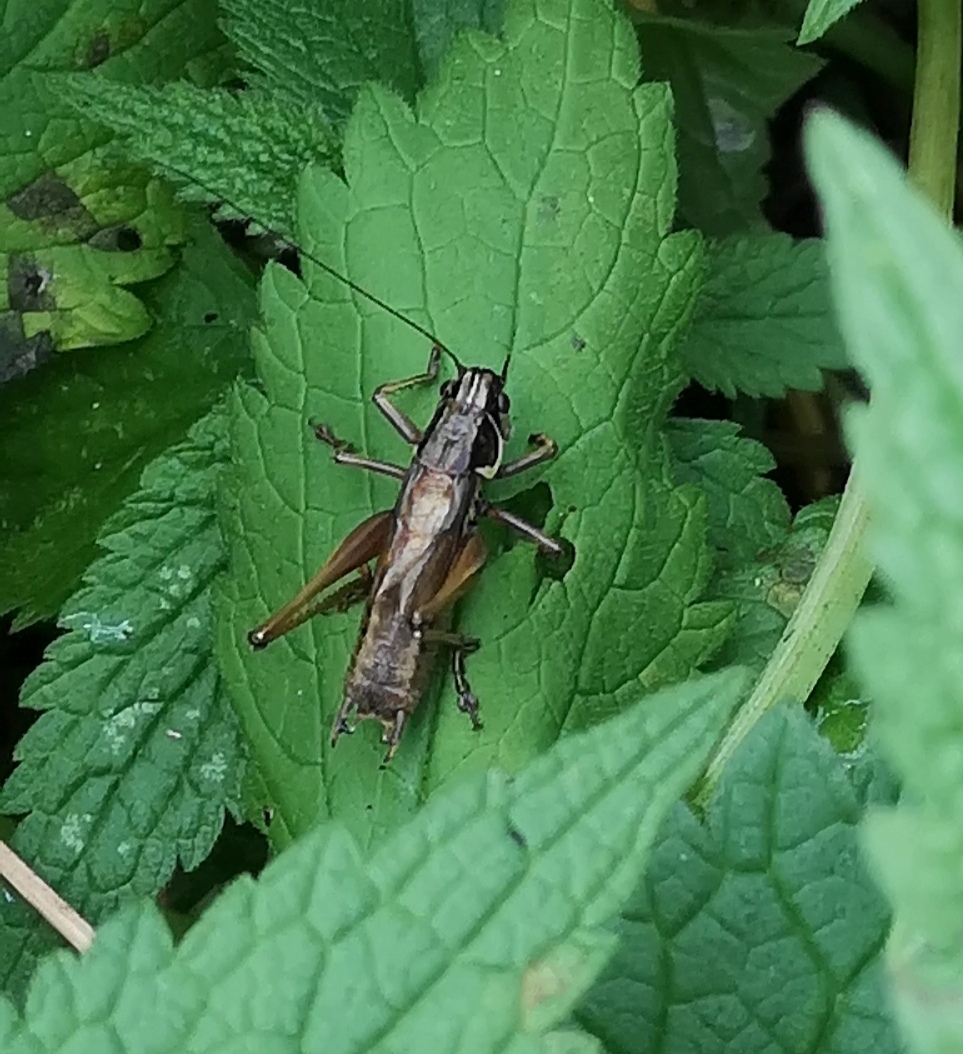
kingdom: Animalia
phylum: Arthropoda
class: Insecta
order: Orthoptera
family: Tettigoniidae
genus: Roeseliana
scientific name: Roeseliana roeselii
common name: Roesel's bush cricket
